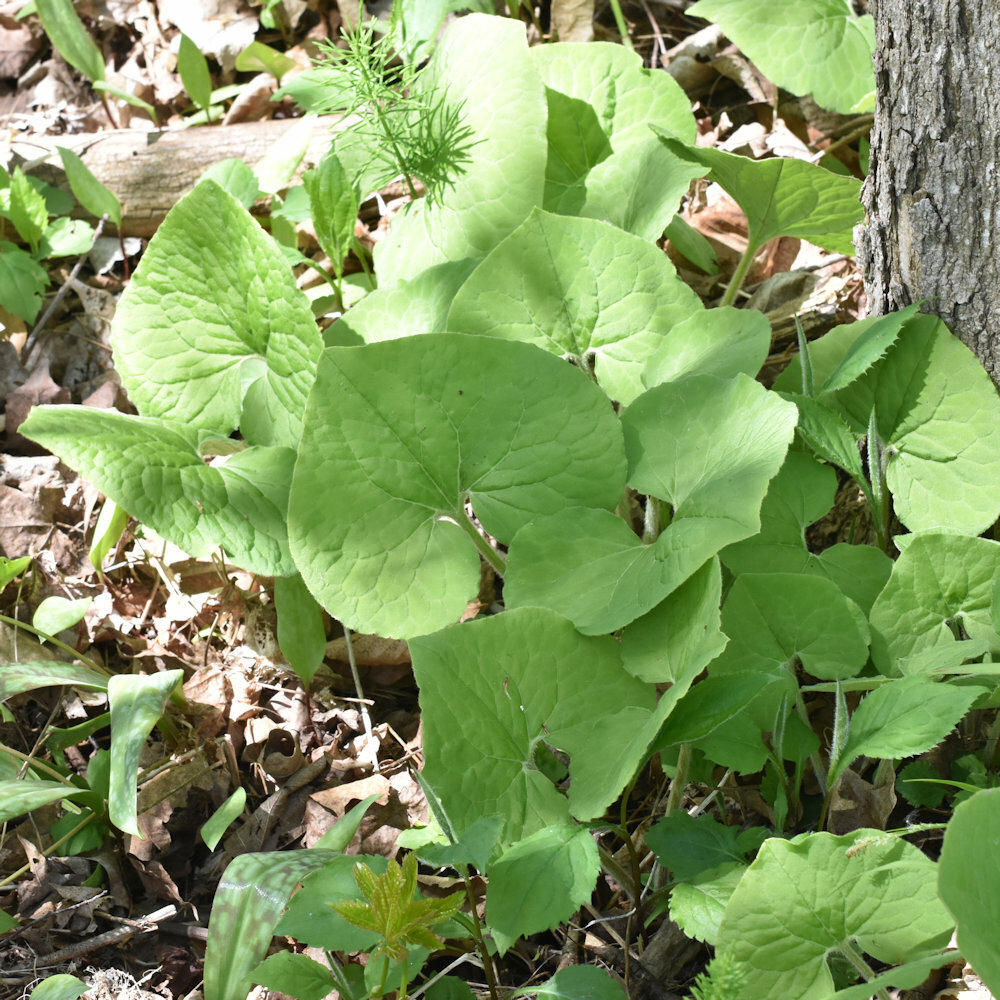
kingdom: Plantae
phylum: Tracheophyta
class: Magnoliopsida
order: Piperales
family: Aristolochiaceae
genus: Asarum
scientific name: Asarum canadense
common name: Wild ginger
